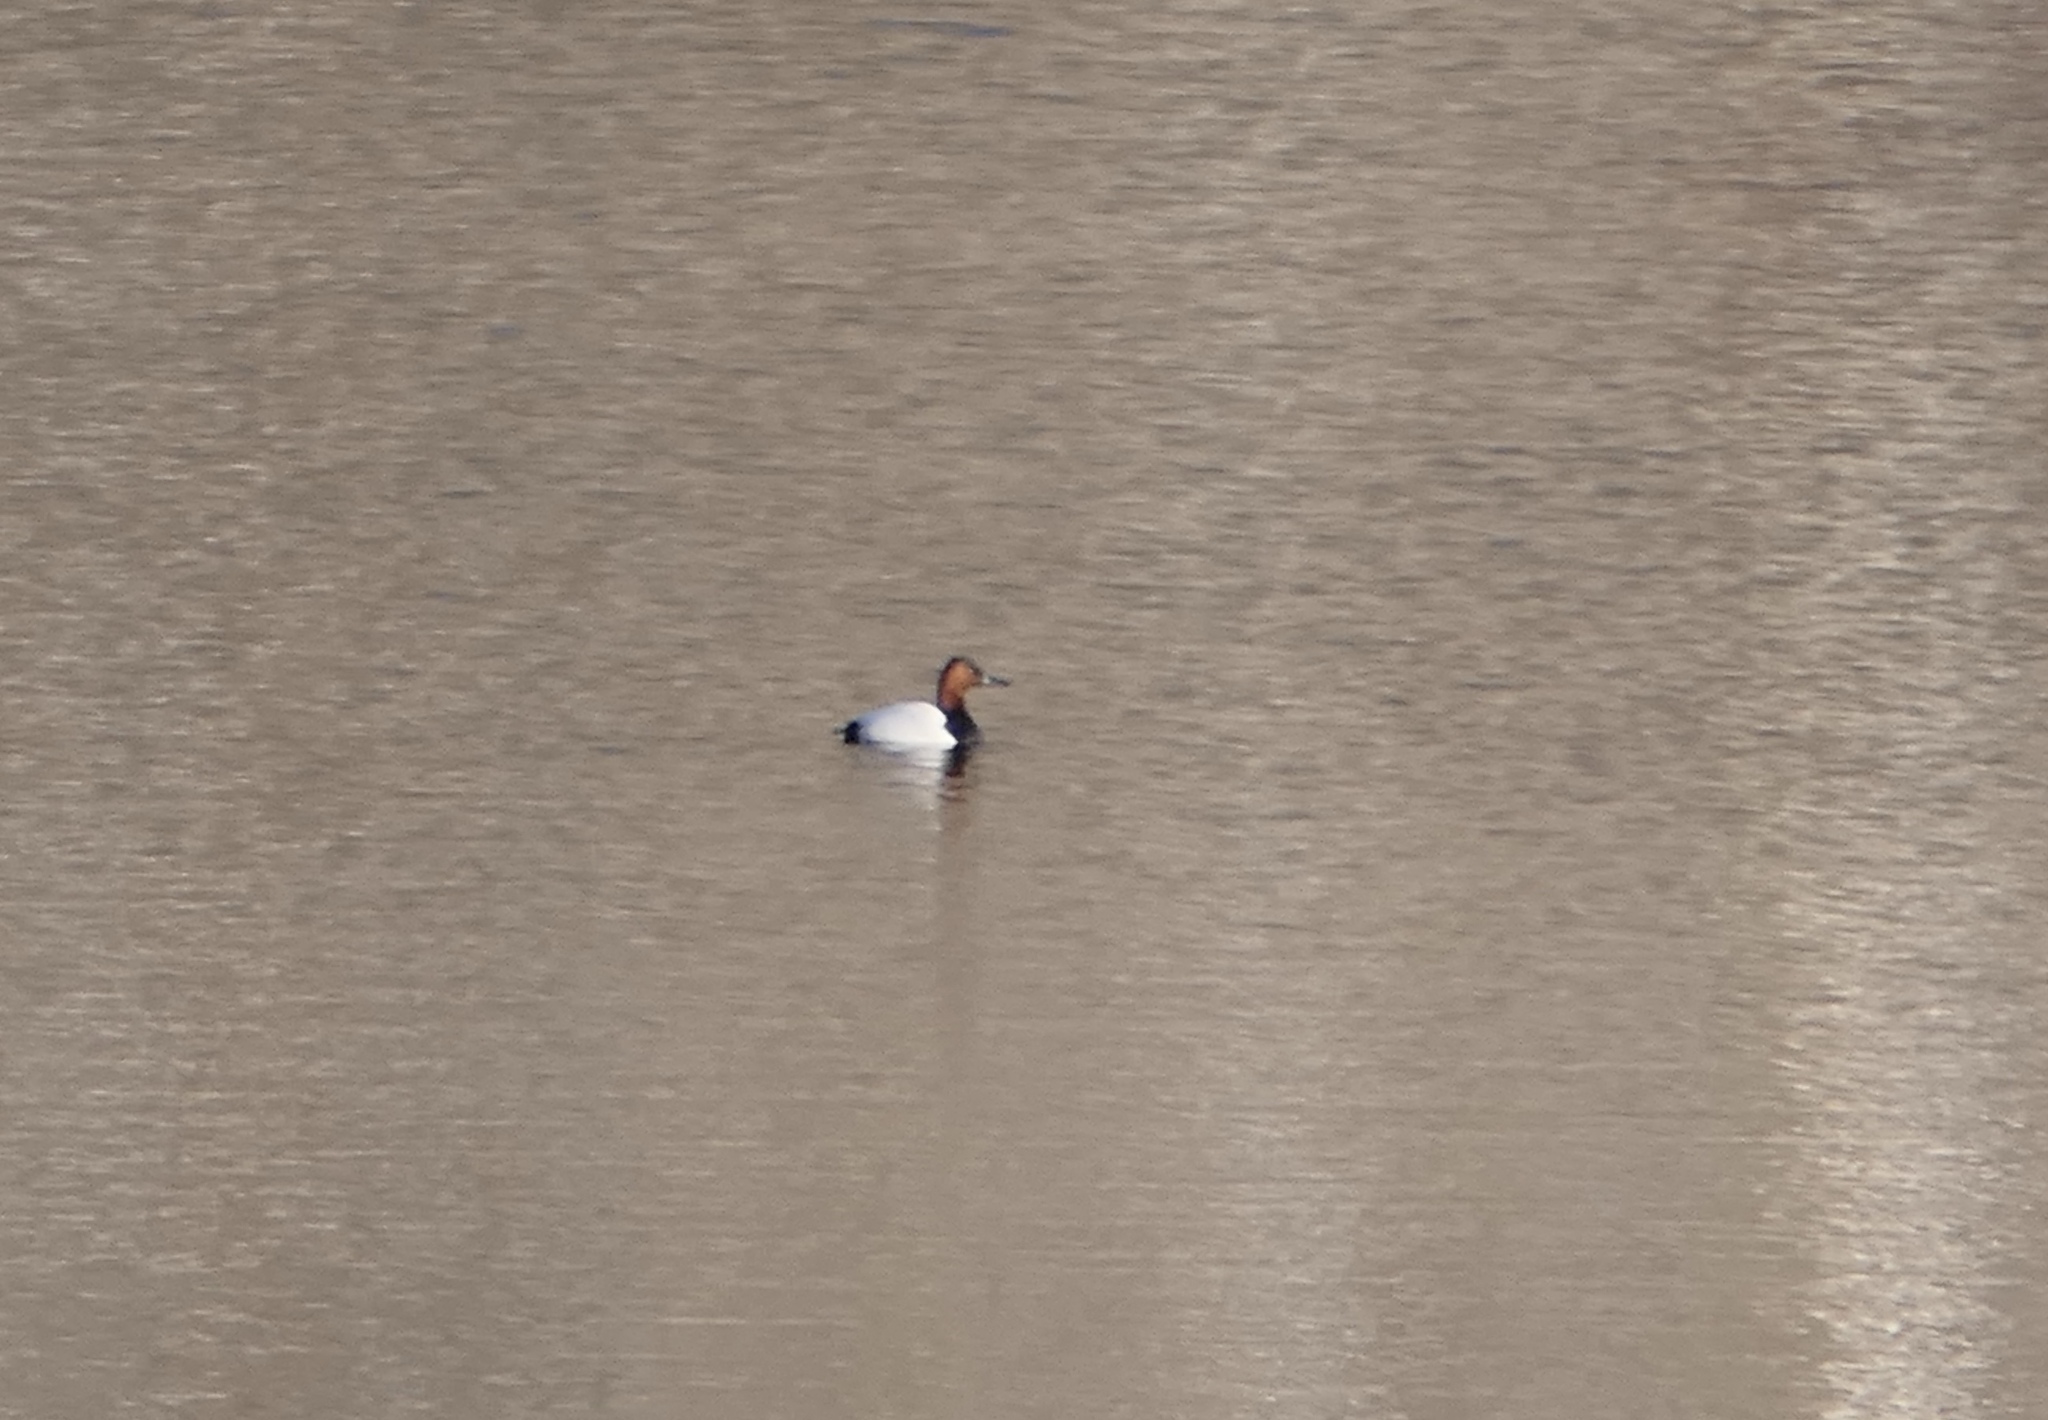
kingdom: Animalia
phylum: Chordata
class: Aves
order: Anseriformes
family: Anatidae
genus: Aythya
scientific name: Aythya valisineria
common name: Canvasback
